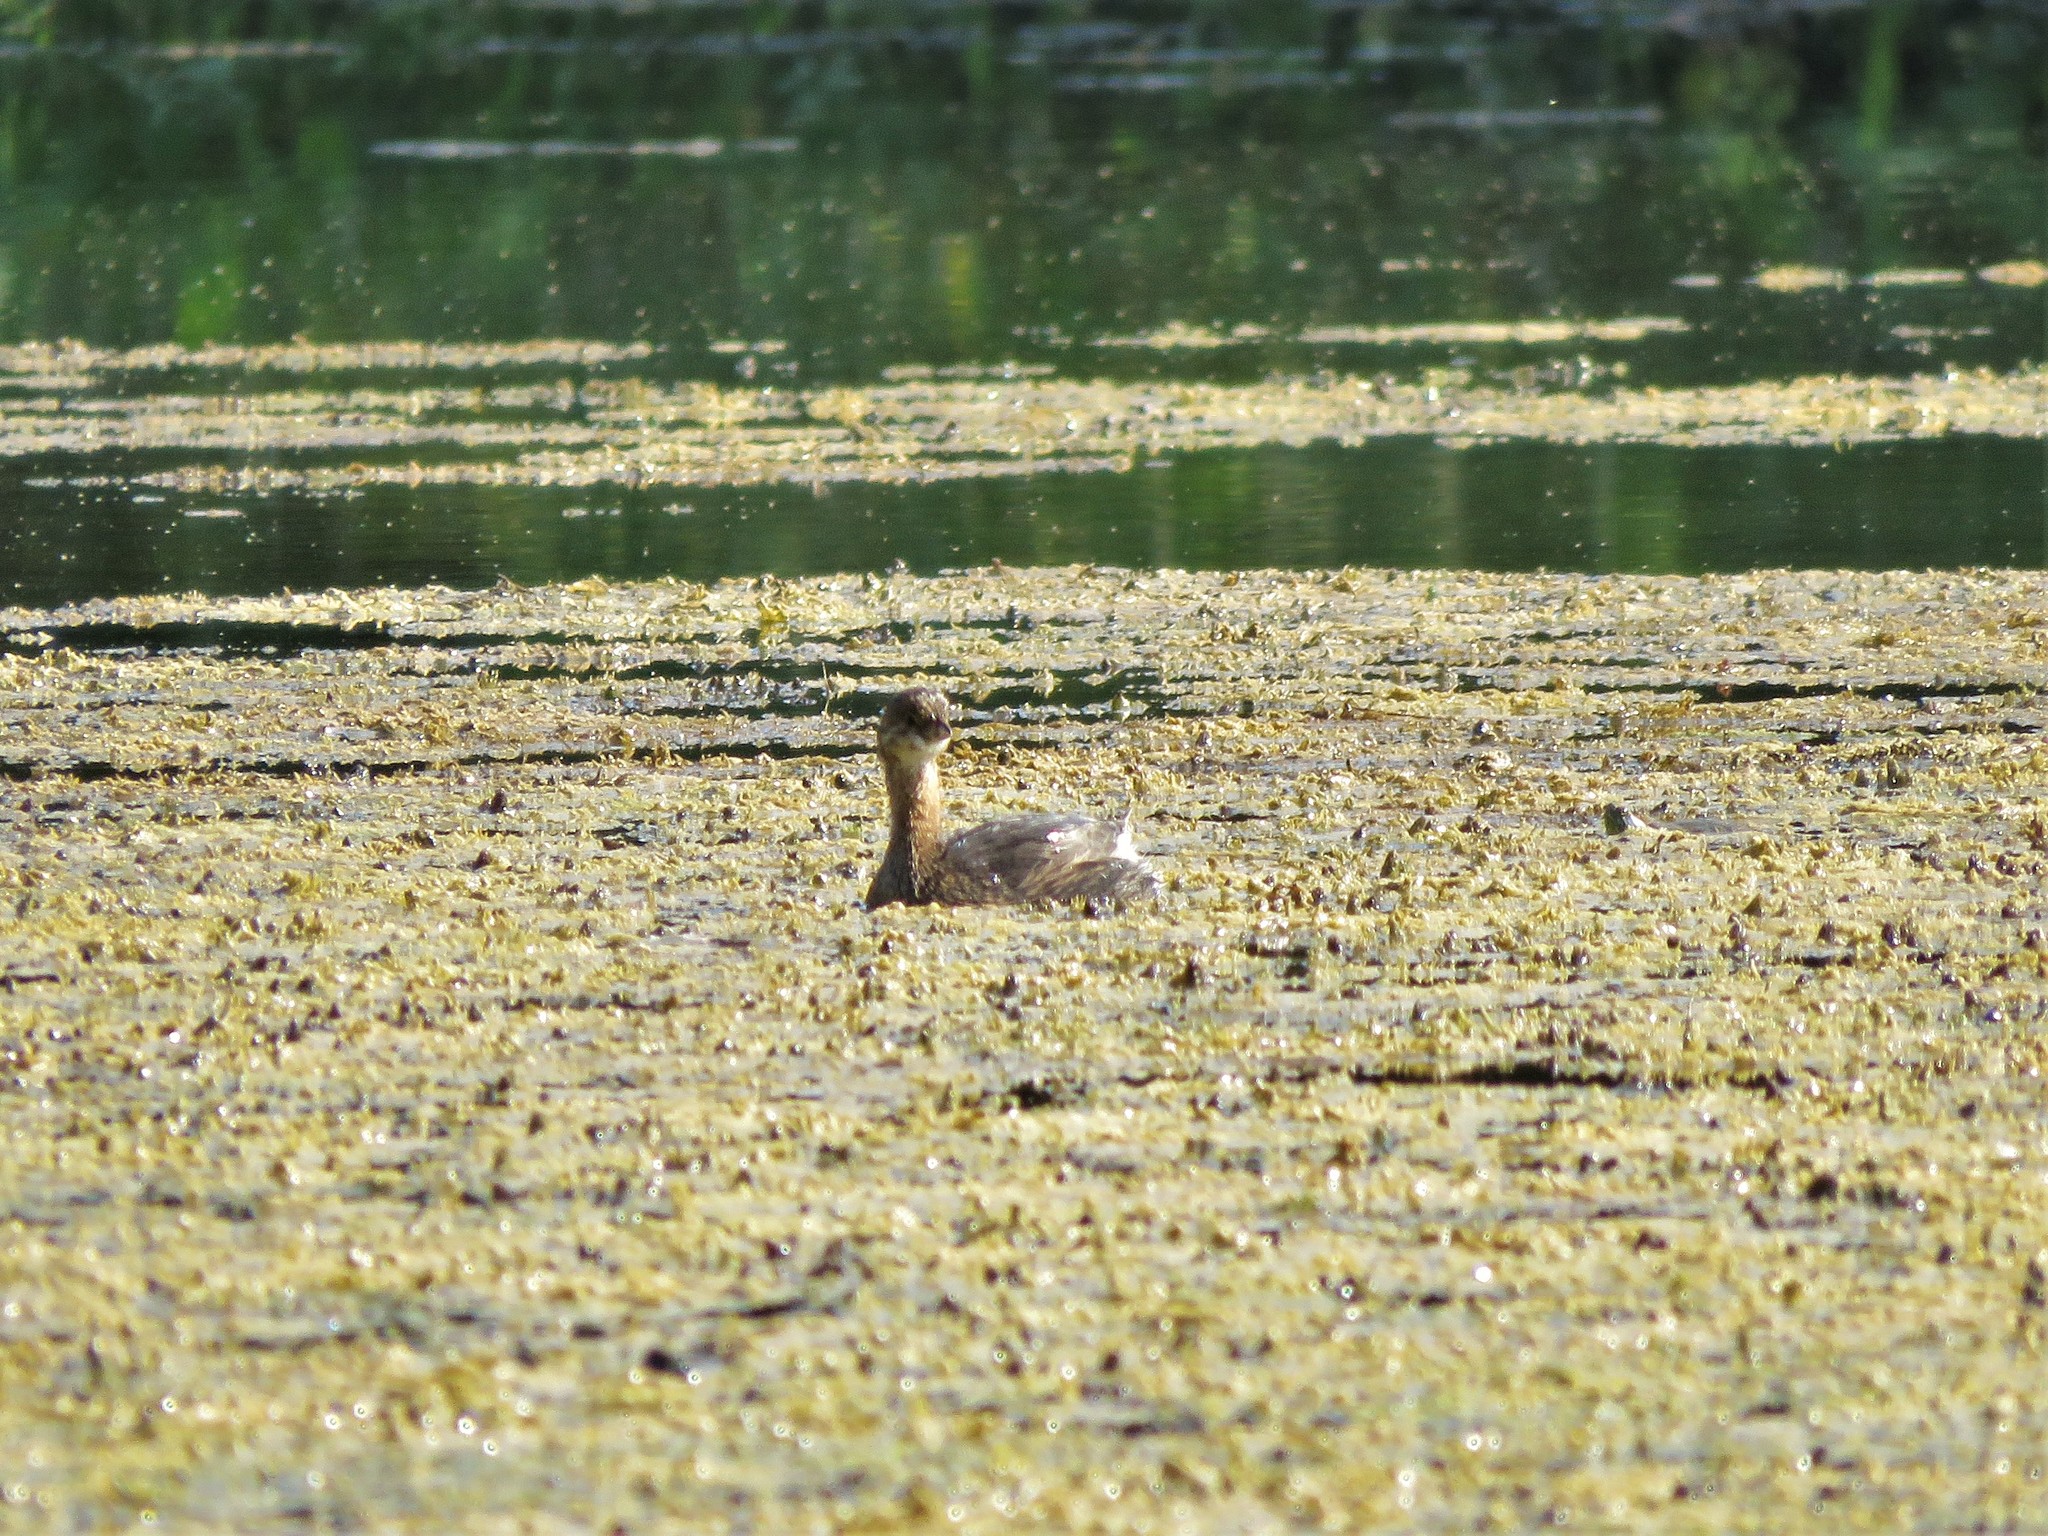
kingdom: Animalia
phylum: Chordata
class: Aves
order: Podicipediformes
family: Podicipedidae
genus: Podilymbus
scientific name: Podilymbus podiceps
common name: Pied-billed grebe
